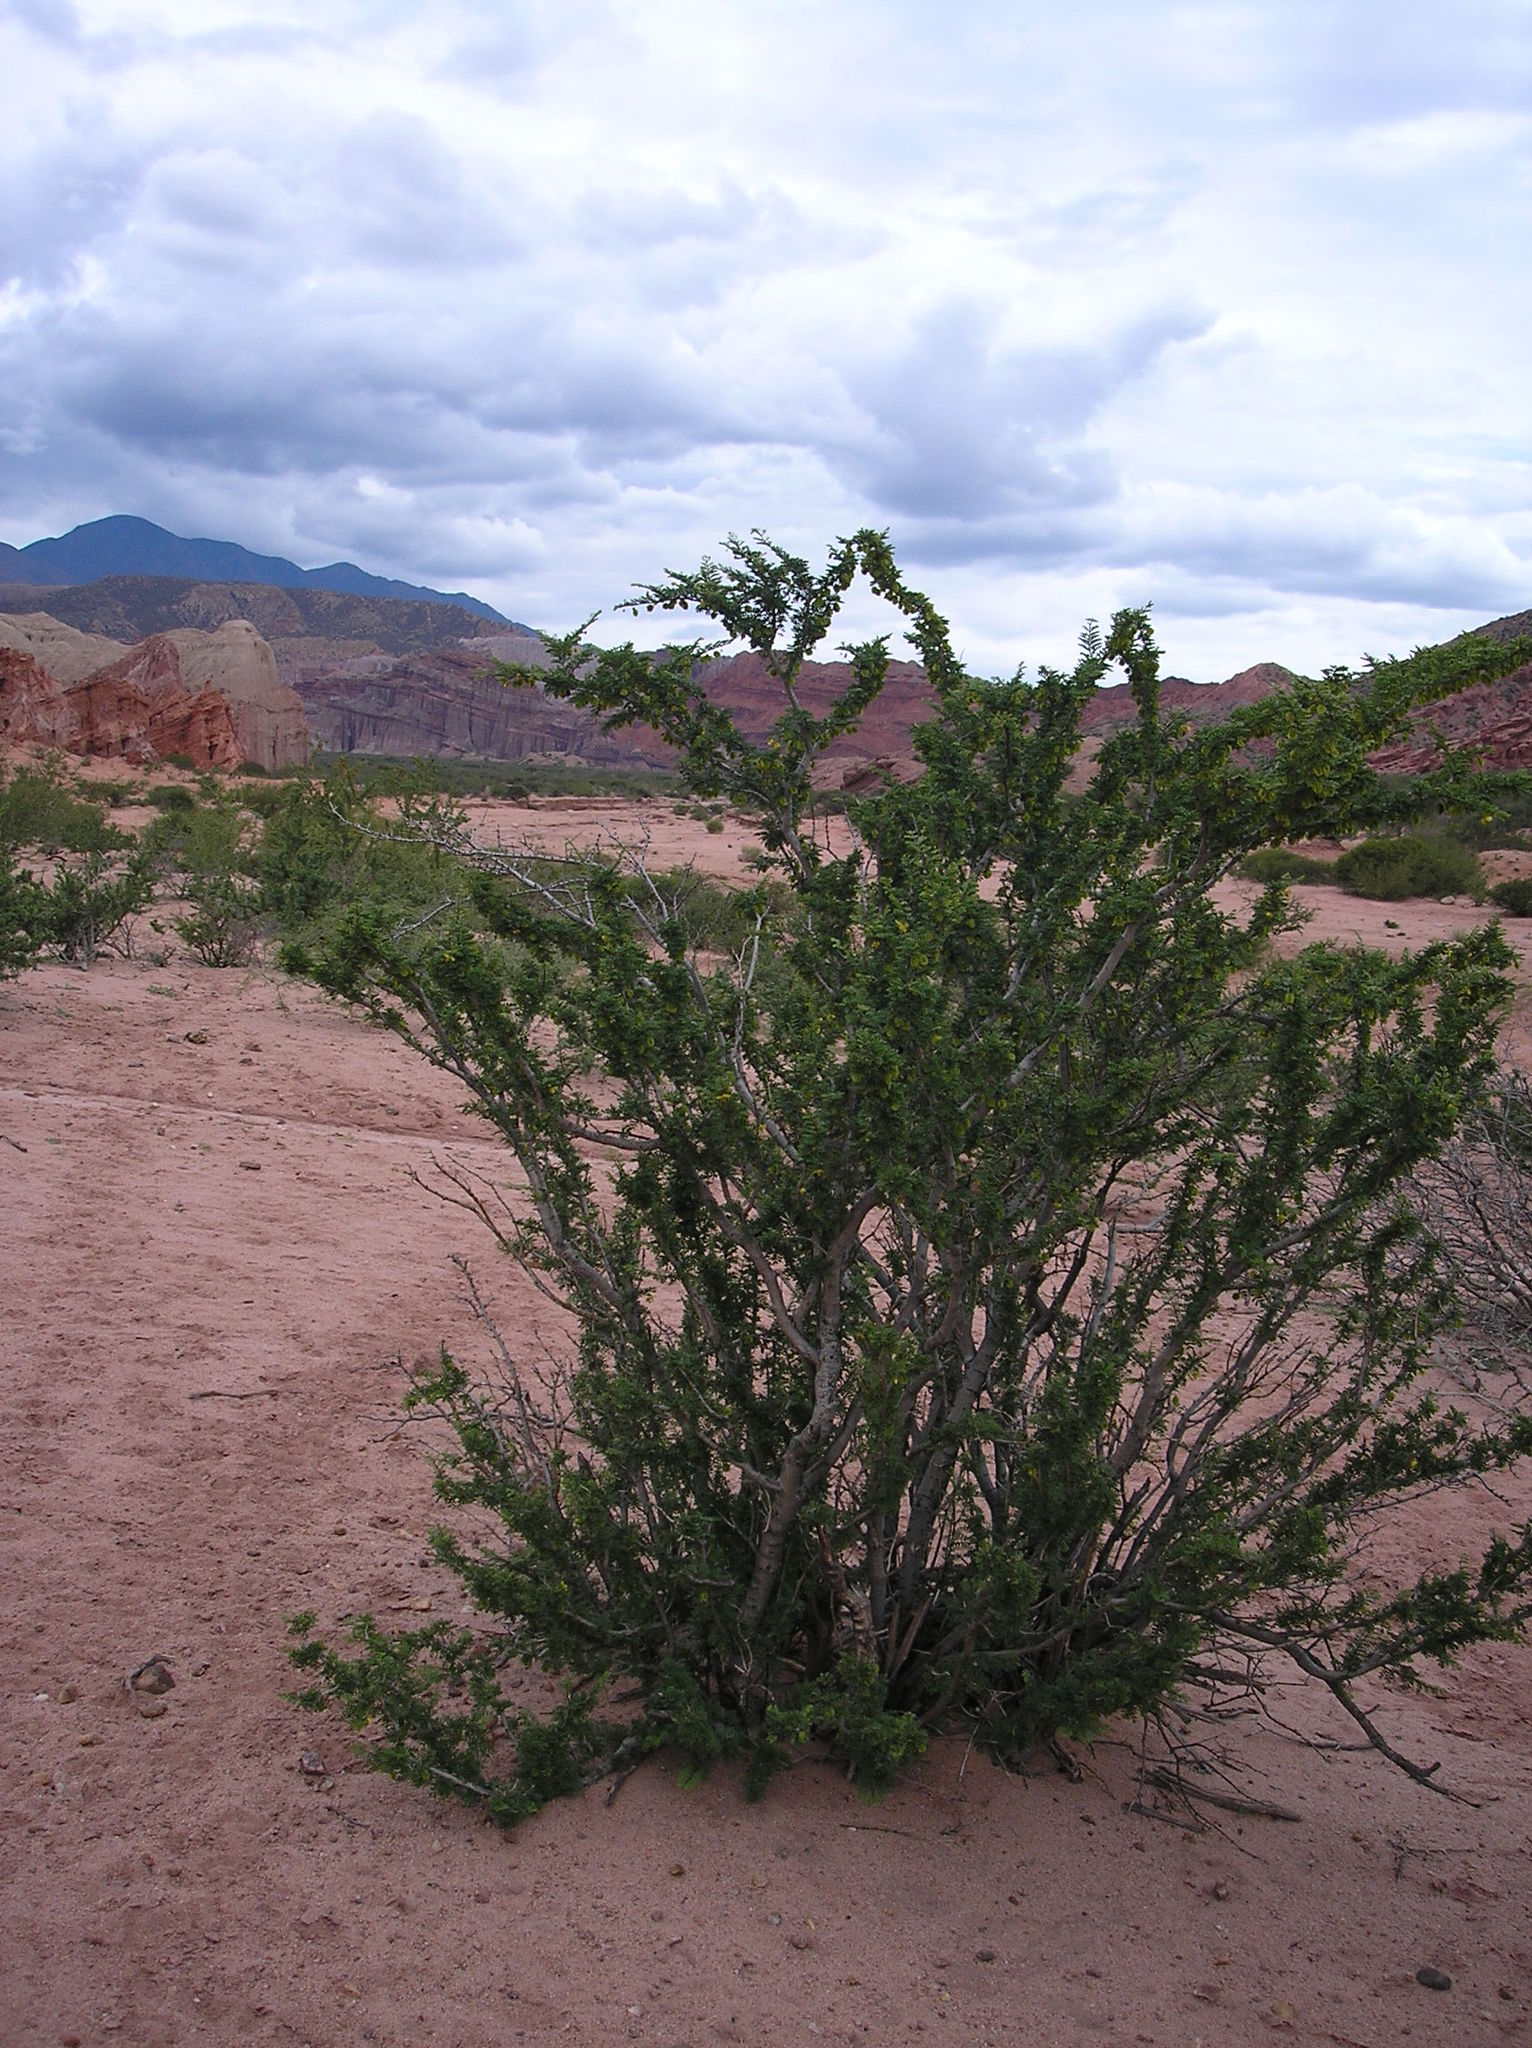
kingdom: Plantae
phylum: Tracheophyta
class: Magnoliopsida
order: Zygophyllales
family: Zygophyllaceae
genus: Bulnesia
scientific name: Bulnesia schickendantzii
